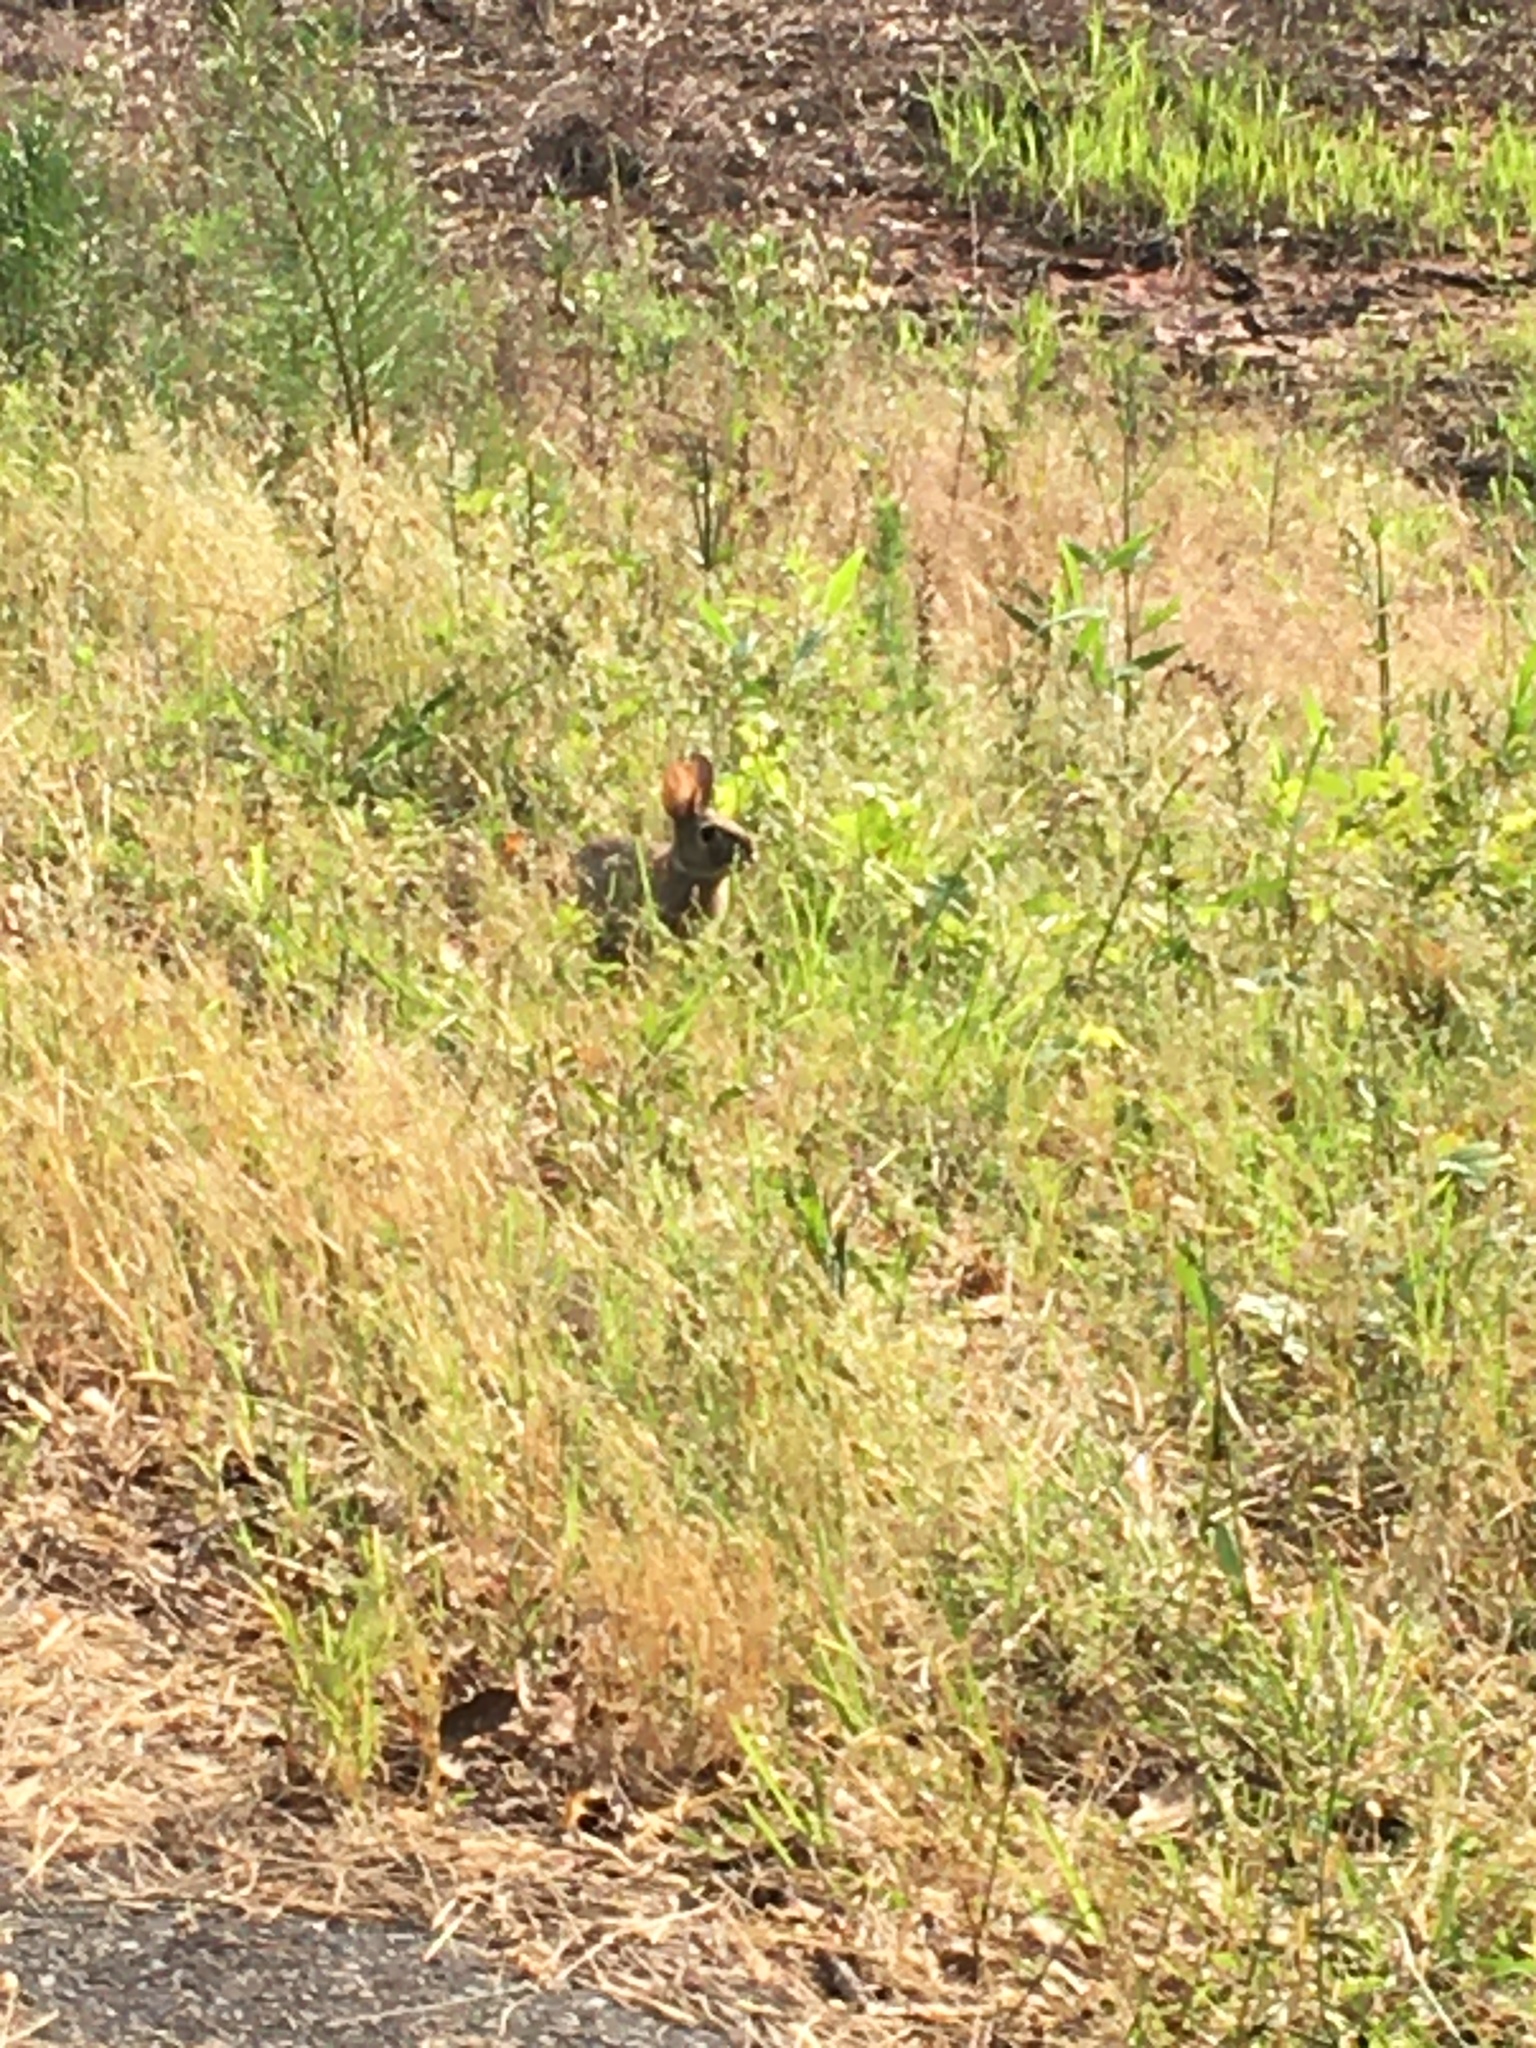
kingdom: Animalia
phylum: Chordata
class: Mammalia
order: Lagomorpha
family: Leporidae
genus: Sylvilagus
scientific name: Sylvilagus floridanus
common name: Eastern cottontail
